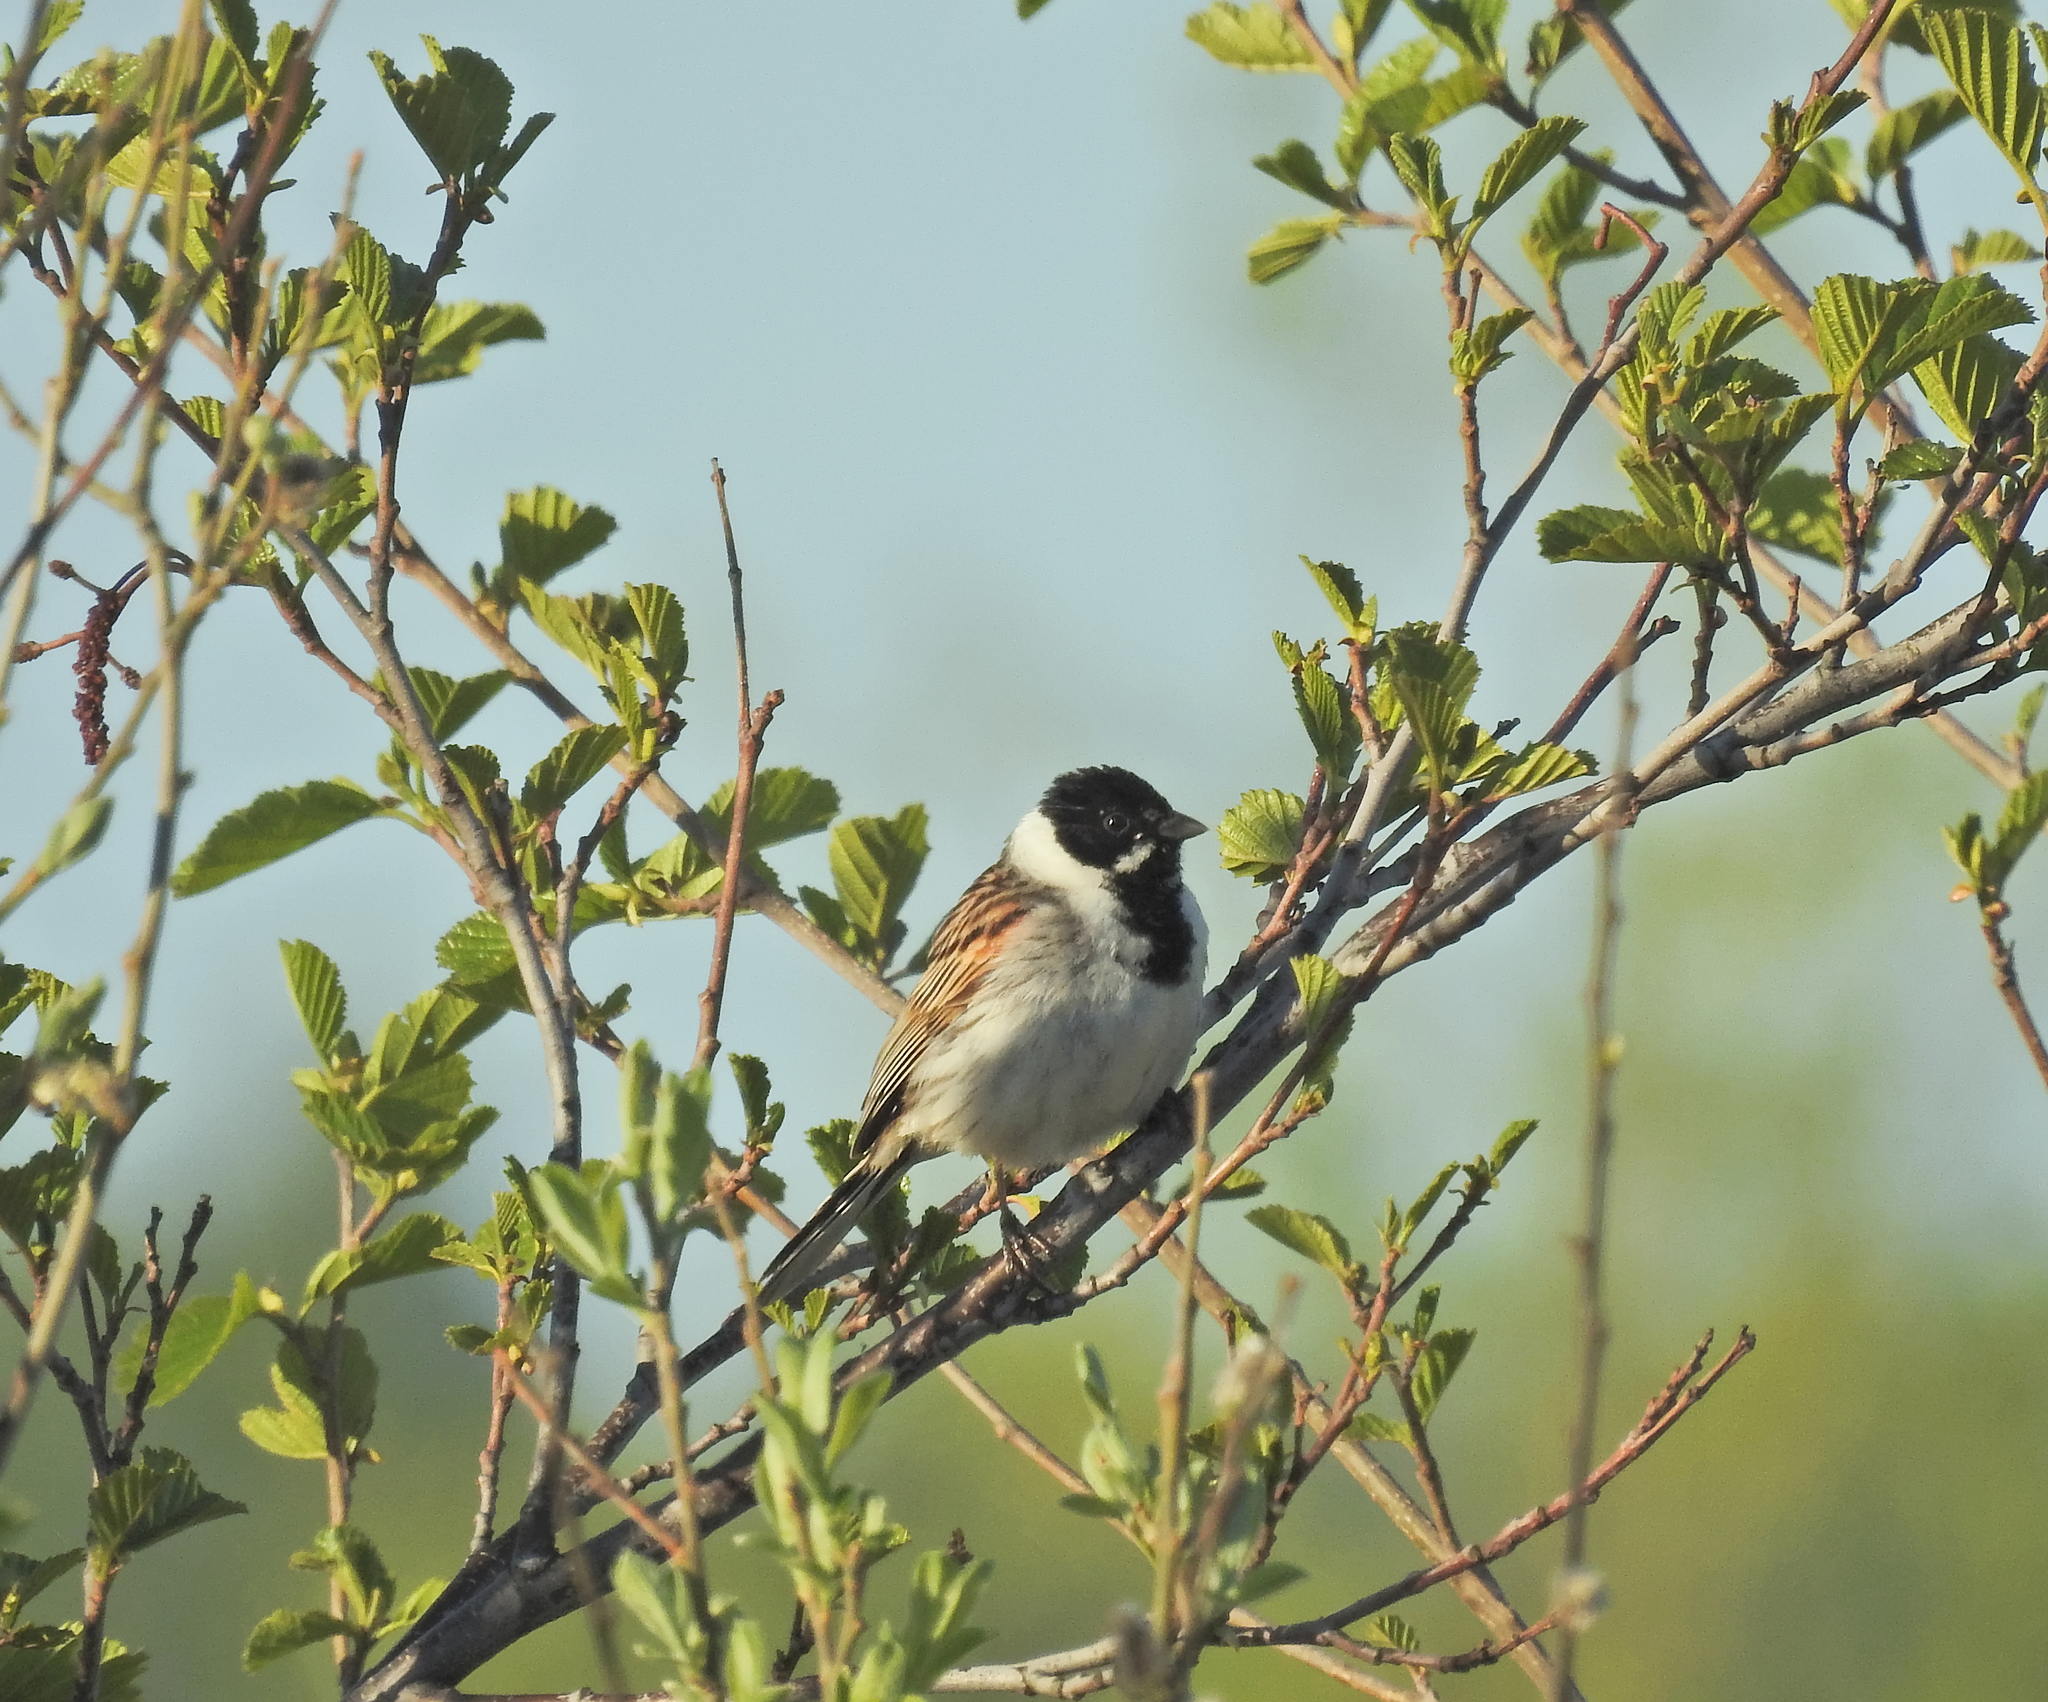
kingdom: Animalia
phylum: Chordata
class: Aves
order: Passeriformes
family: Emberizidae
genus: Emberiza
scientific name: Emberiza schoeniclus
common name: Reed bunting
